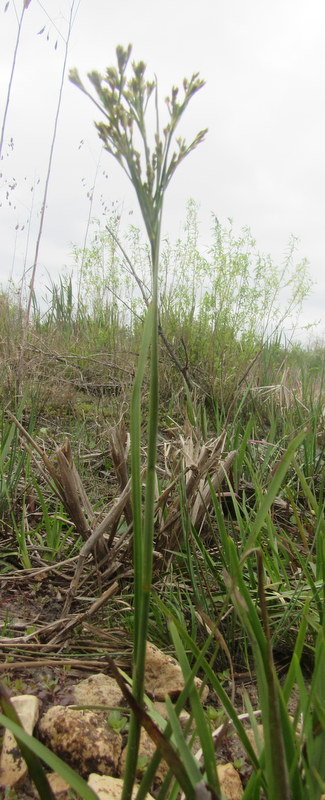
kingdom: Plantae
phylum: Tracheophyta
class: Liliopsida
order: Poales
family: Juncaceae
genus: Juncus
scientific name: Juncus biflorus
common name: Two-flowered rush
